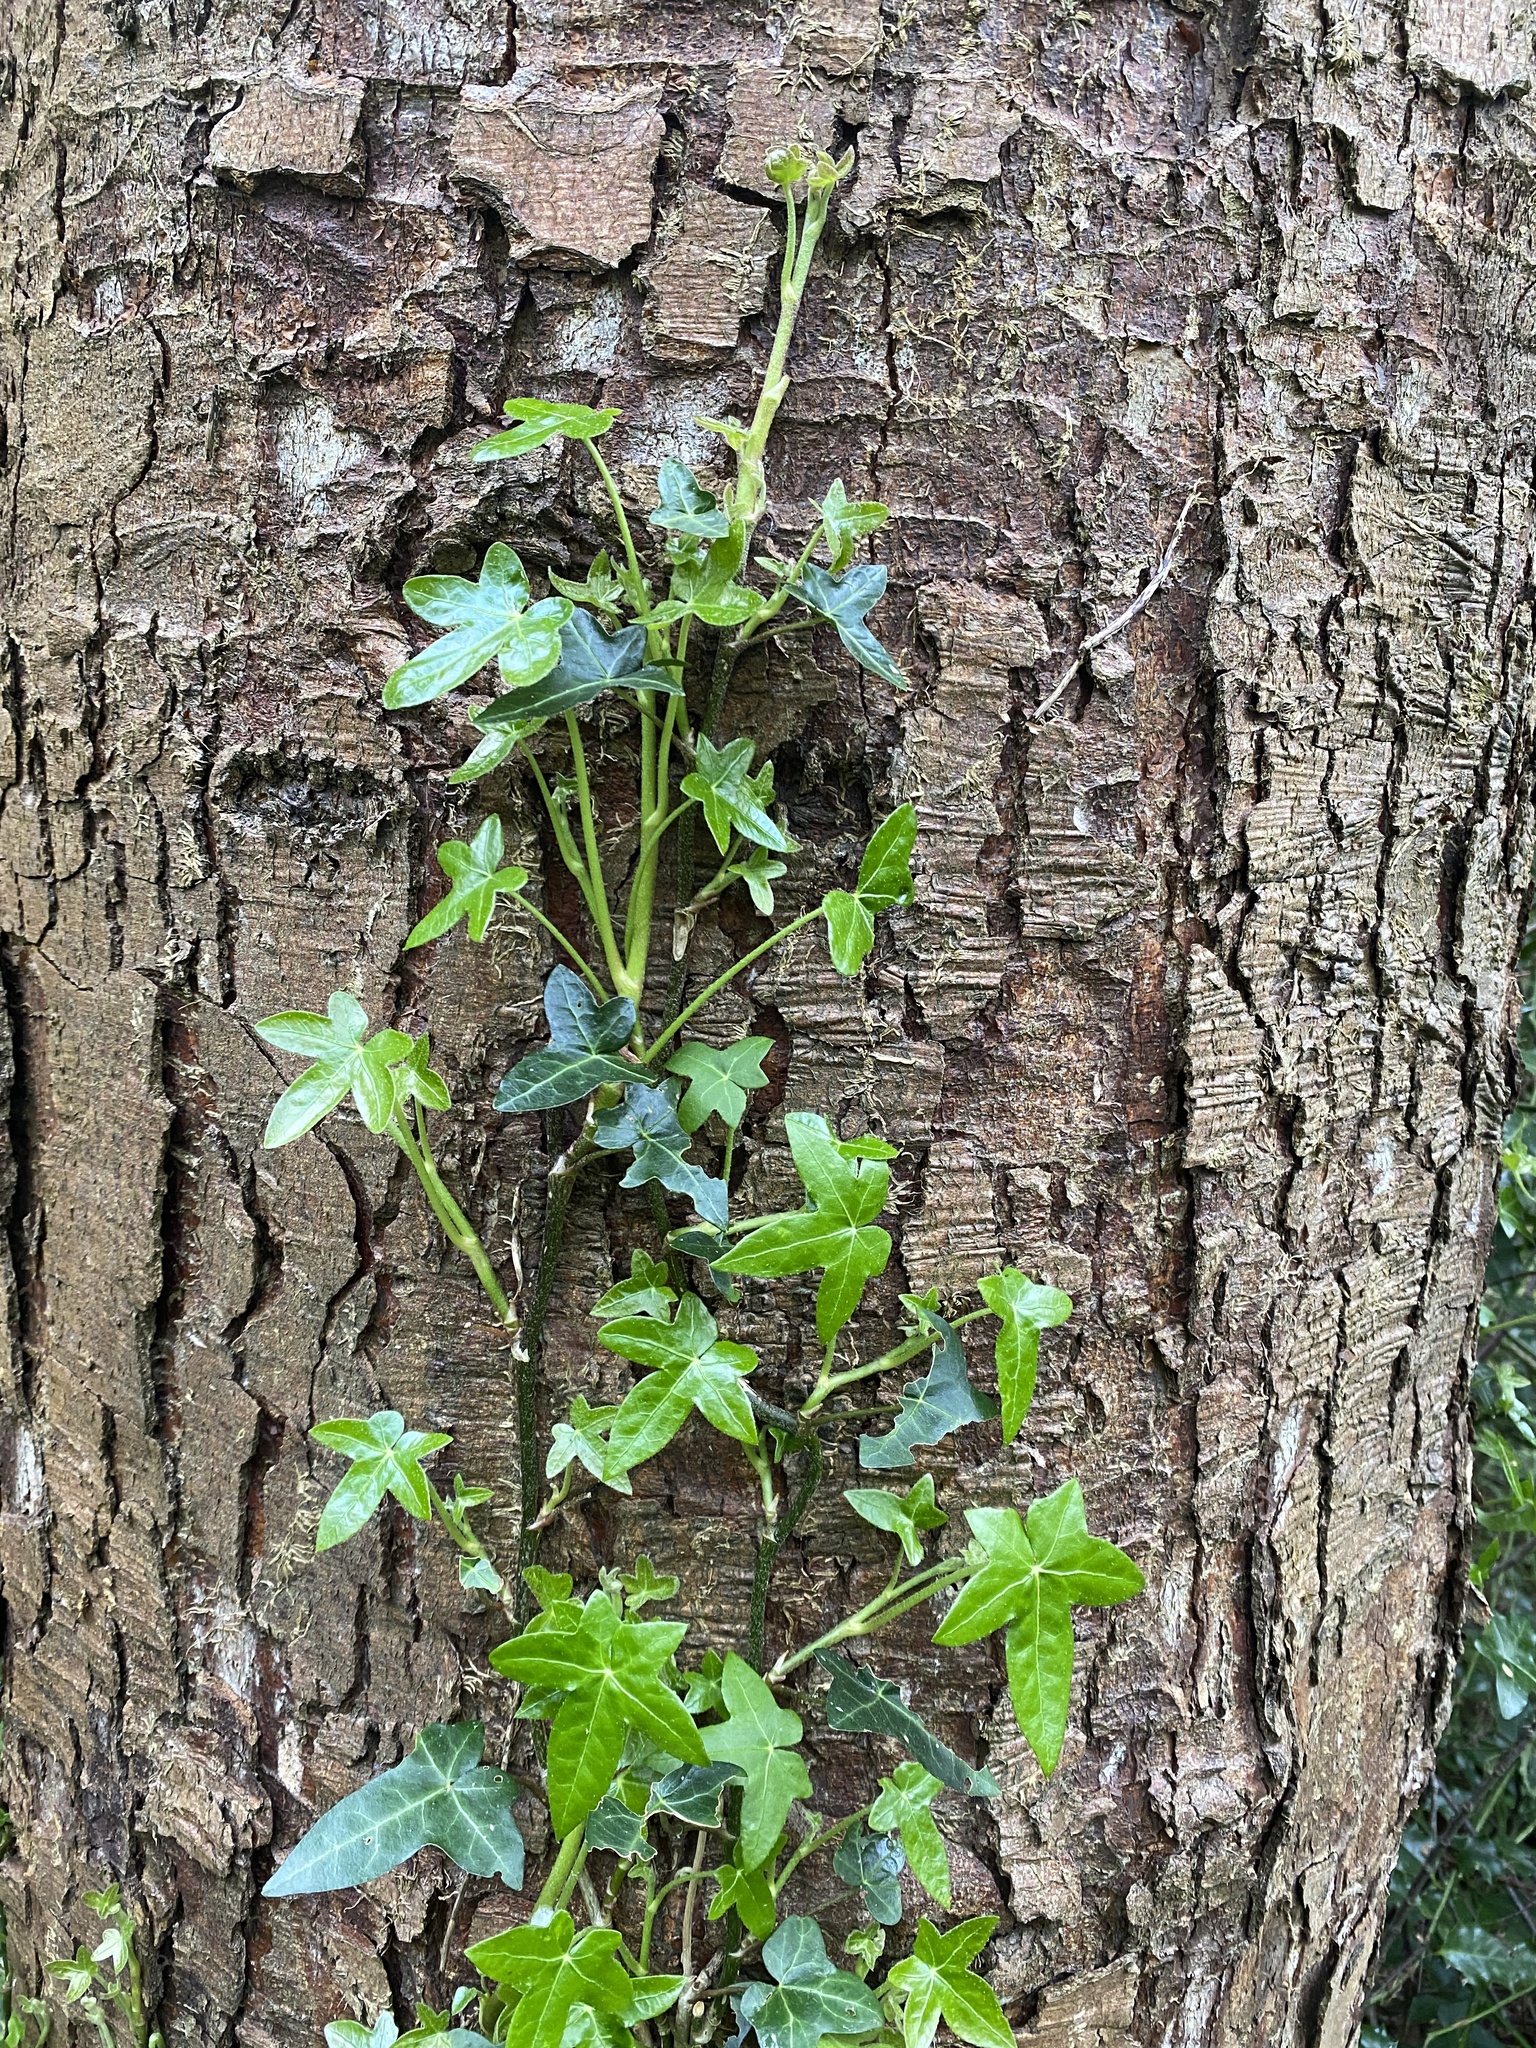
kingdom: Plantae
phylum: Tracheophyta
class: Magnoliopsida
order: Apiales
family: Araliaceae
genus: Hedera
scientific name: Hedera helix
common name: Ivy
